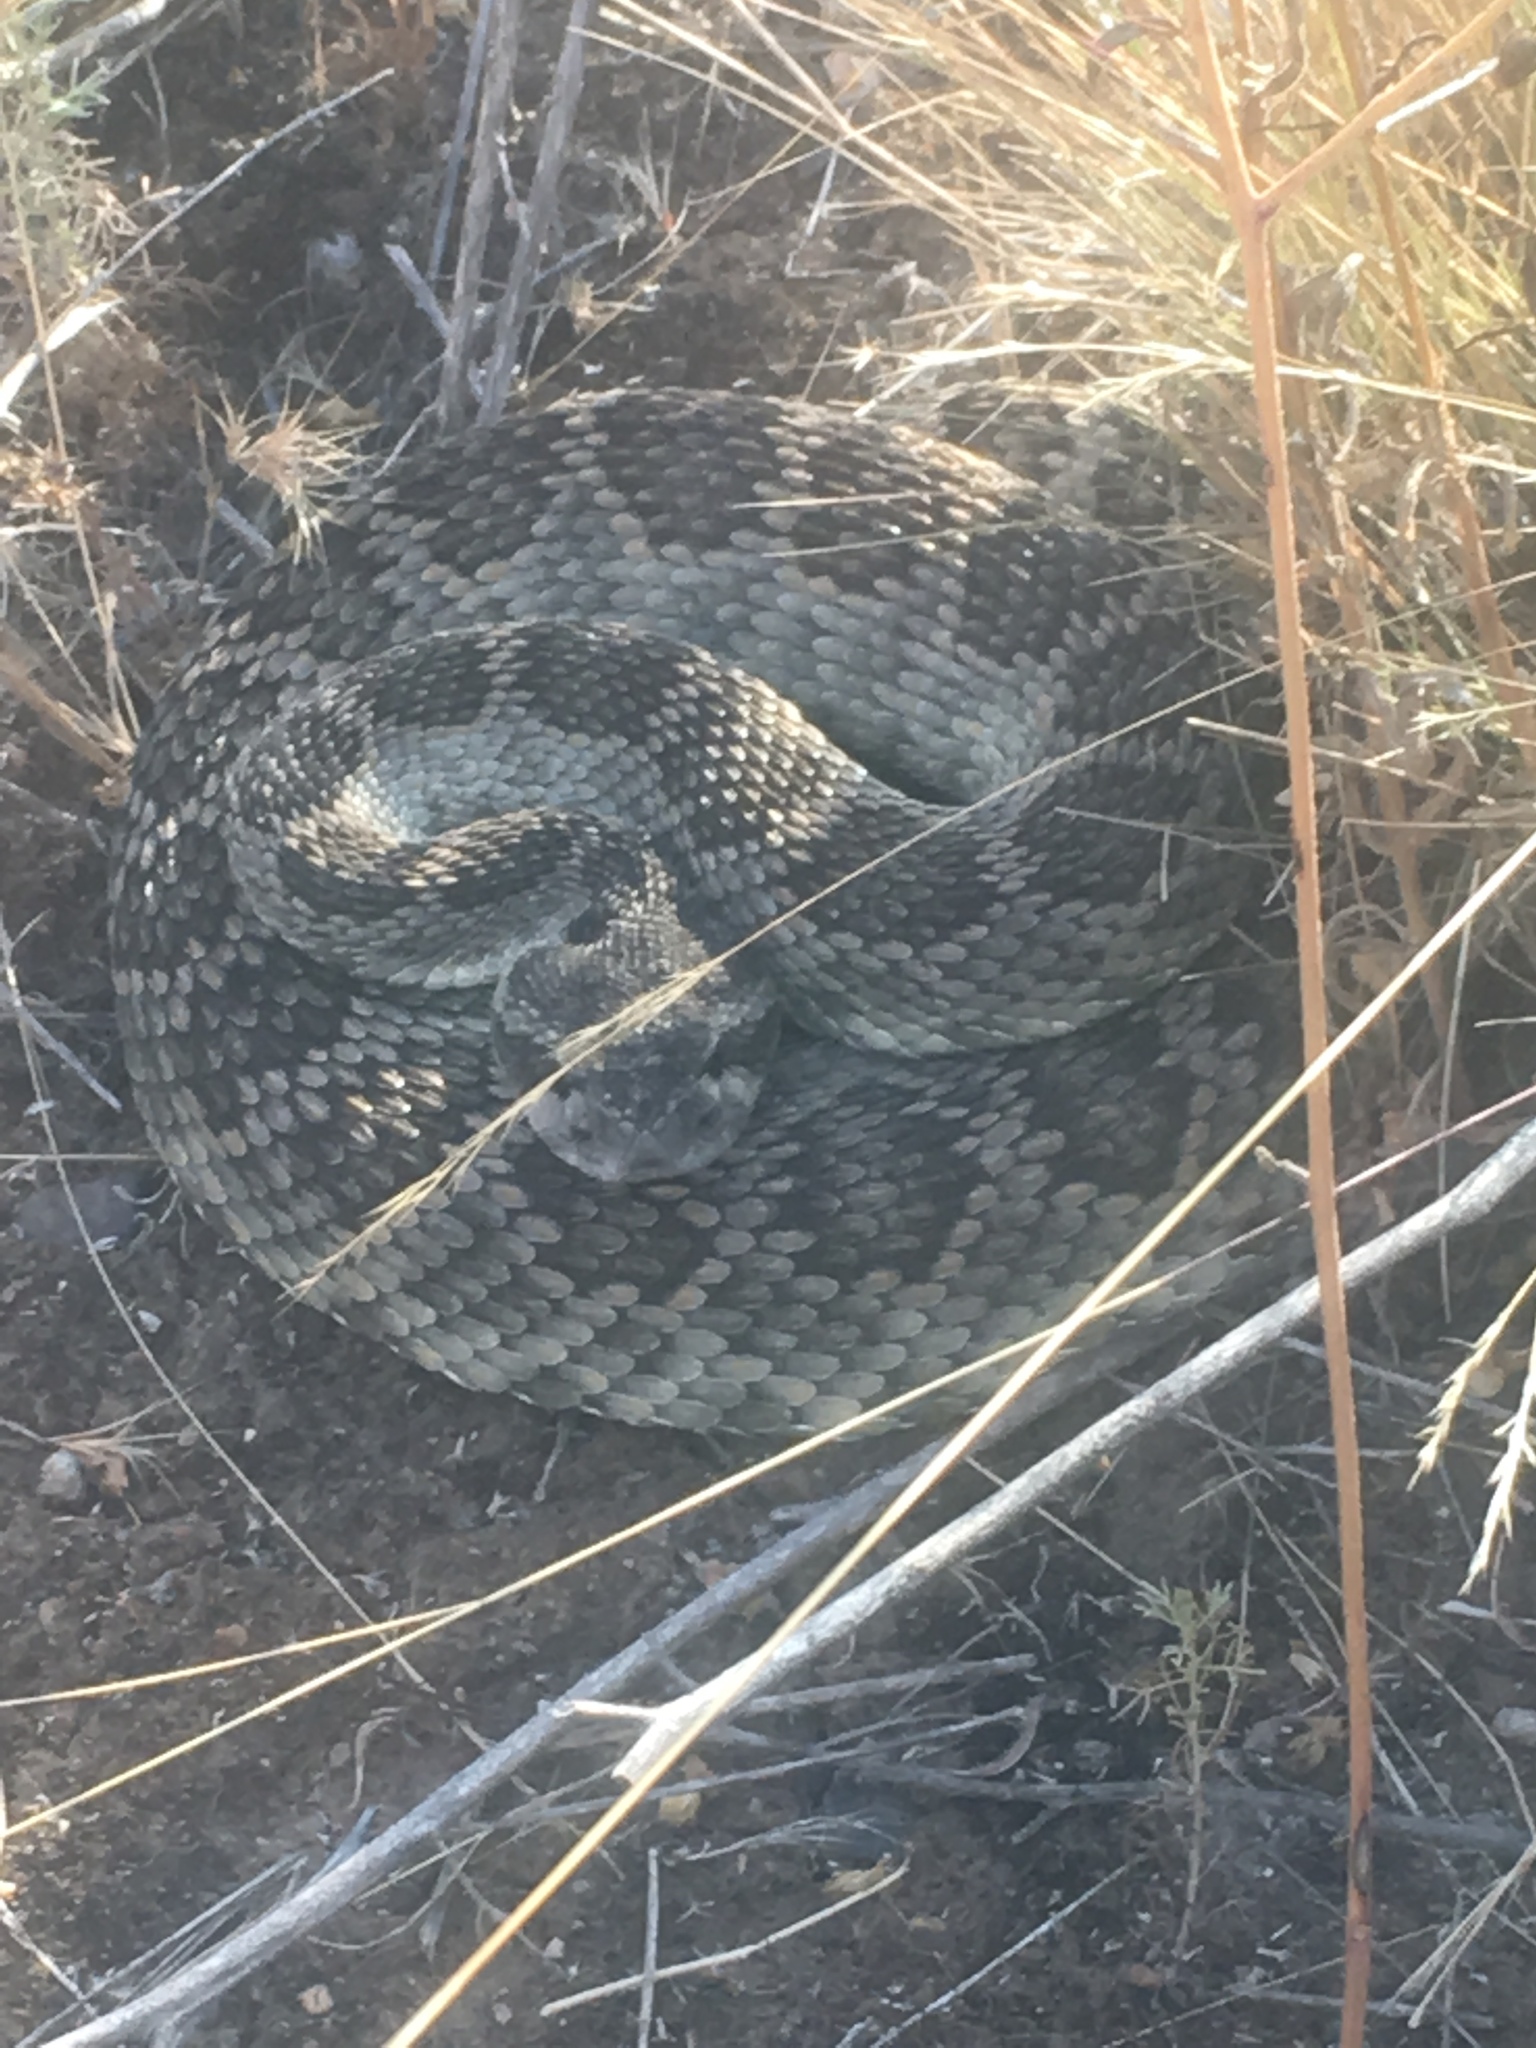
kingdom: Animalia
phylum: Chordata
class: Squamata
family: Viperidae
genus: Crotalus
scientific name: Crotalus oreganus
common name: Abyssus
